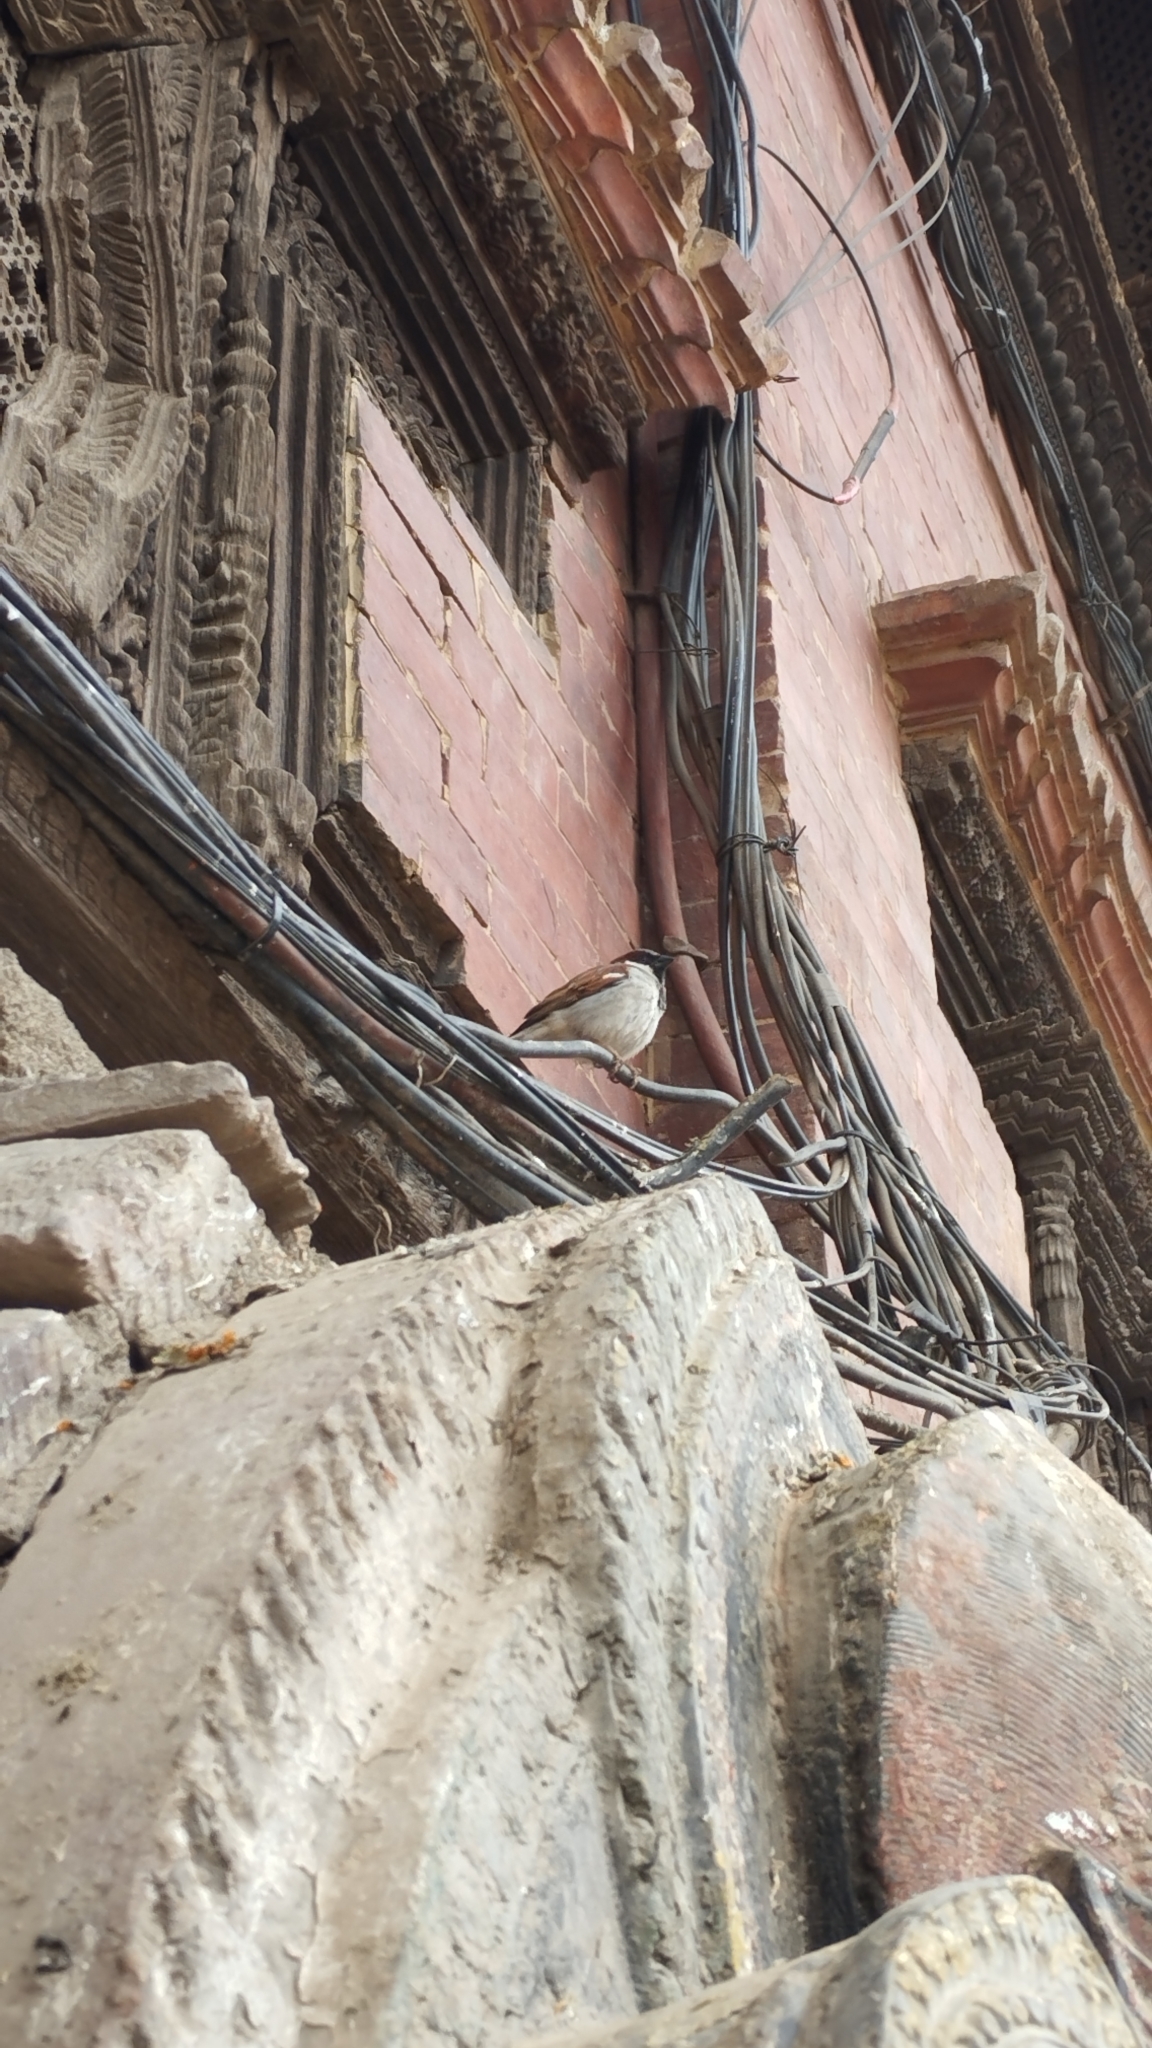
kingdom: Animalia
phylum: Chordata
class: Aves
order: Passeriformes
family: Passeridae
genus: Passer
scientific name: Passer domesticus
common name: House sparrow
